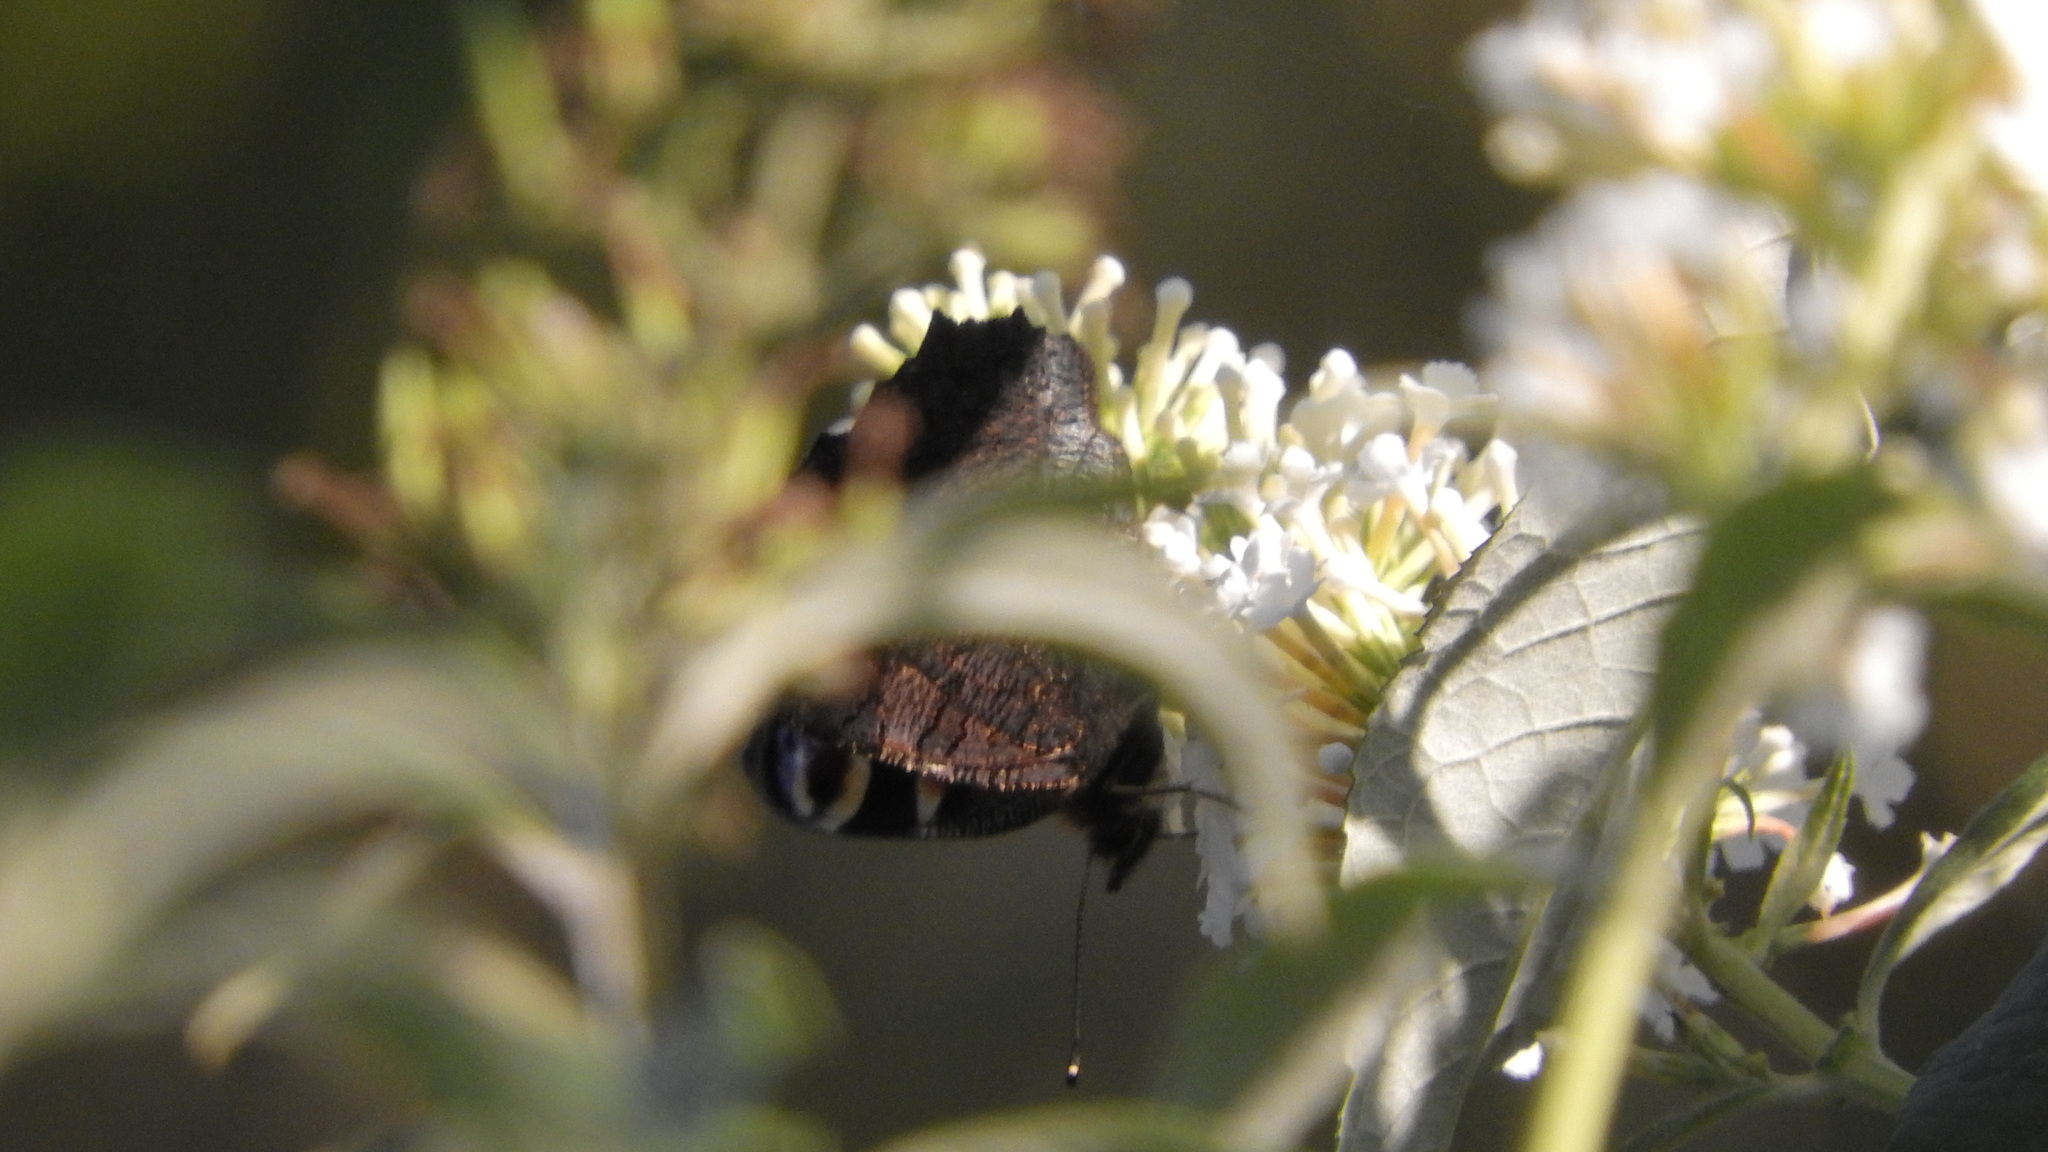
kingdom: Animalia
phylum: Arthropoda
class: Insecta
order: Lepidoptera
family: Nymphalidae
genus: Aglais
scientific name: Aglais io
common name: Peacock
